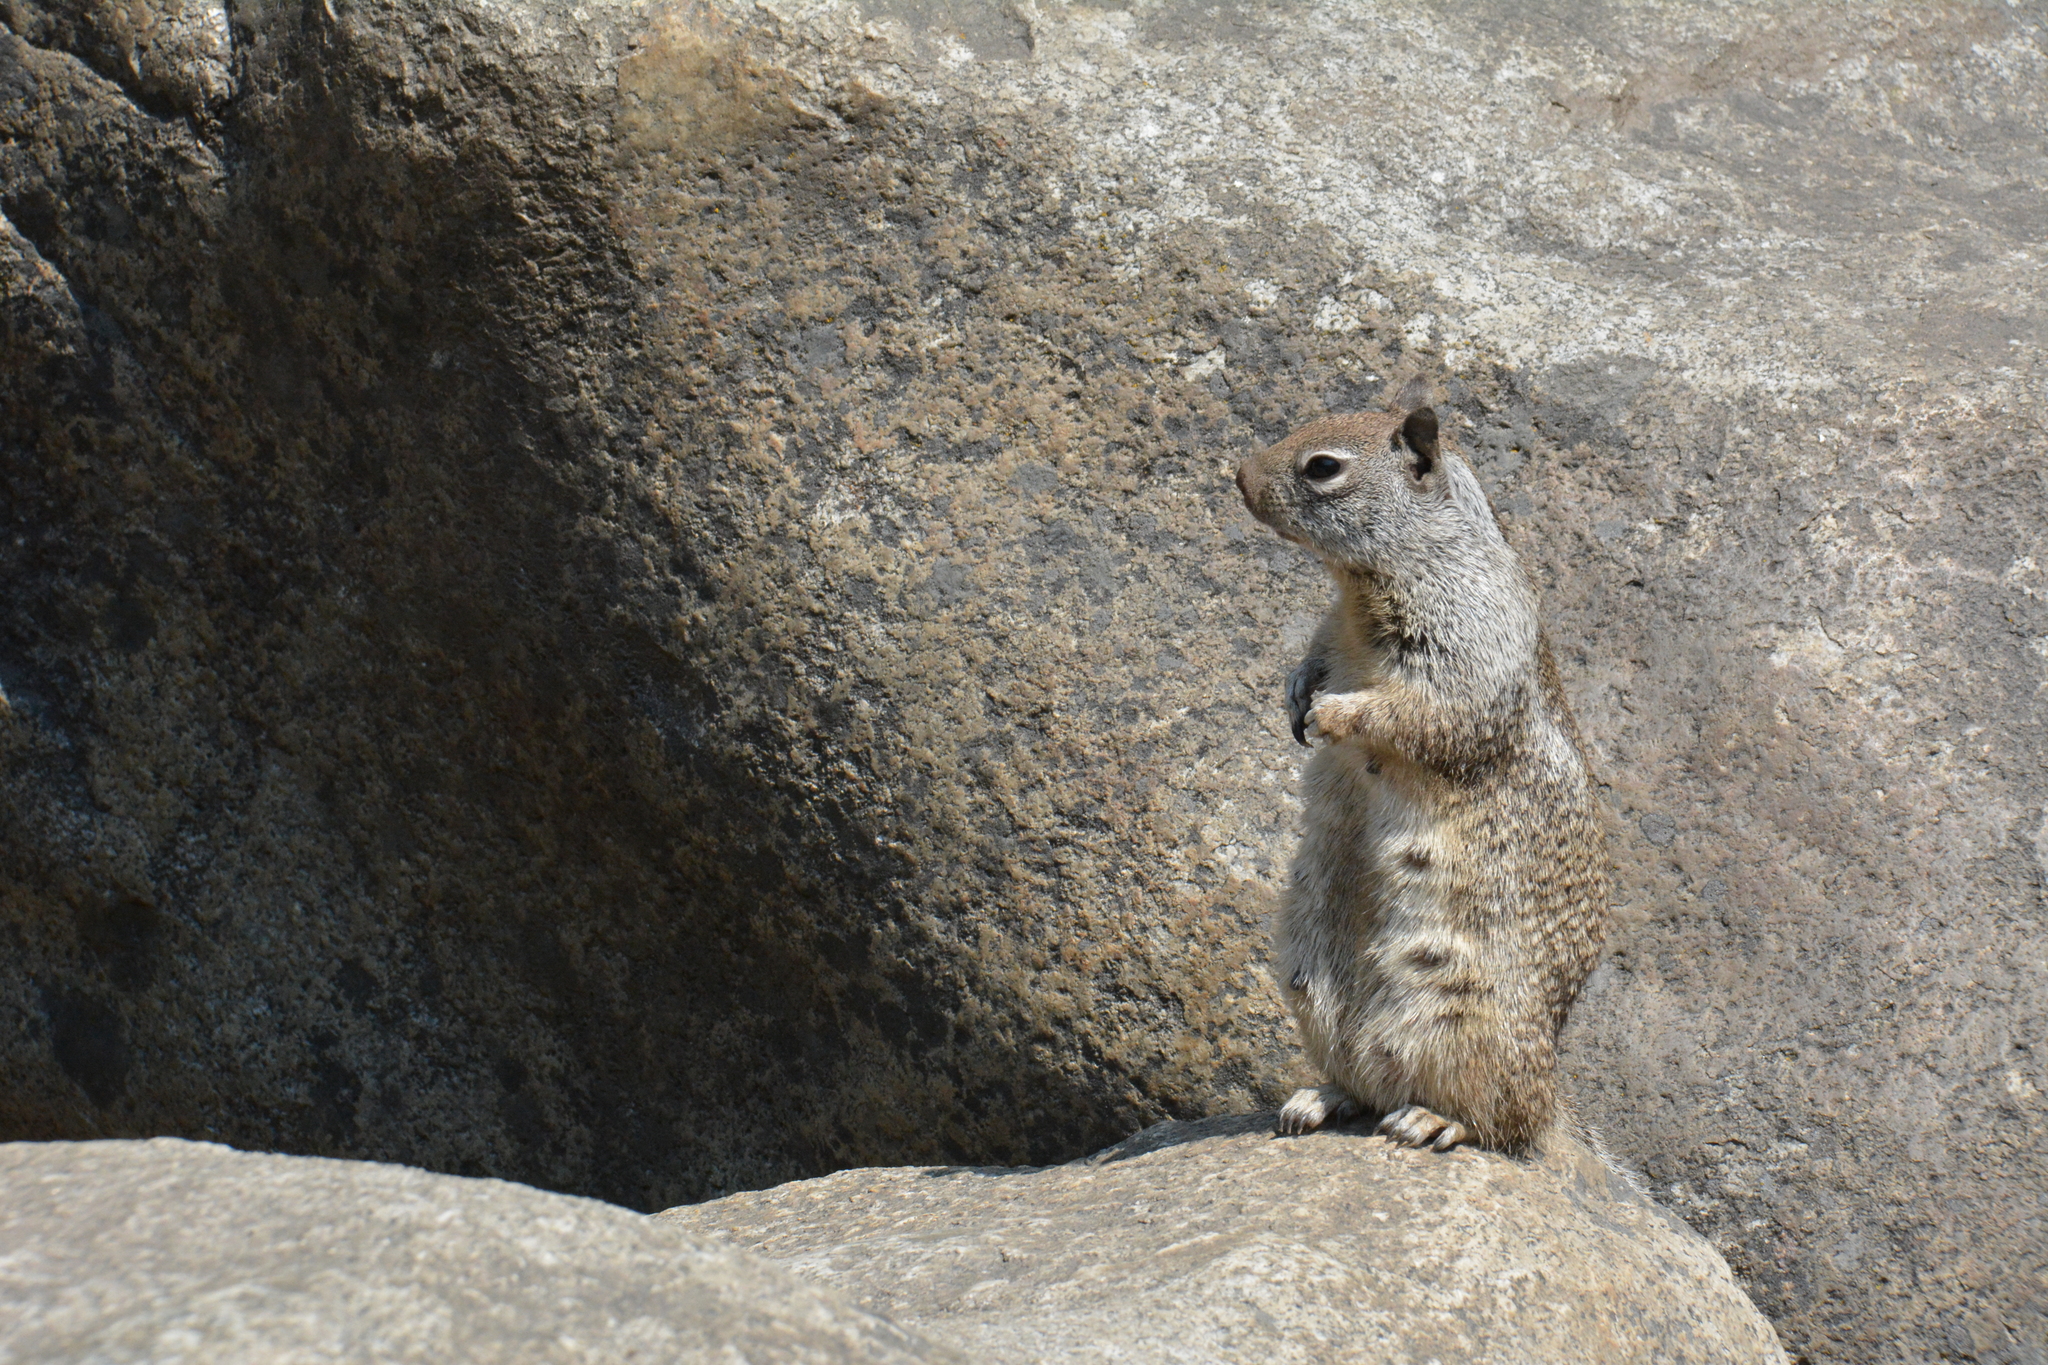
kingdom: Animalia
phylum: Chordata
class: Mammalia
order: Rodentia
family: Sciuridae
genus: Otospermophilus
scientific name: Otospermophilus beecheyi
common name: California ground squirrel
